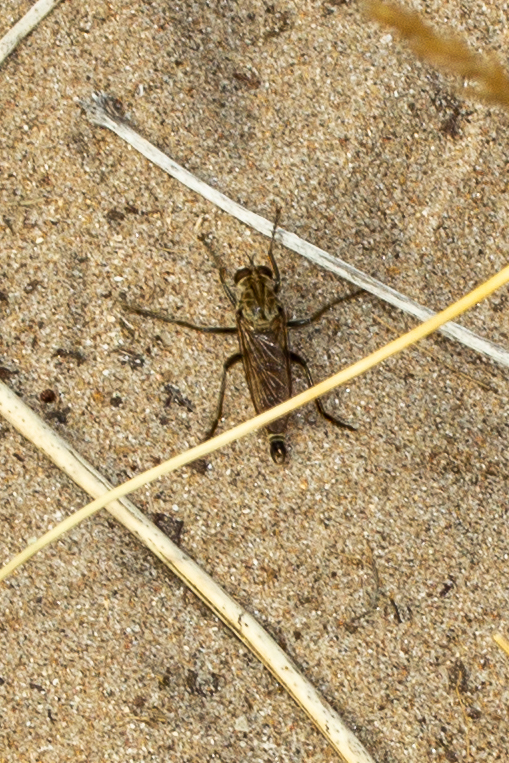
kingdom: Animalia
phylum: Arthropoda
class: Insecta
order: Diptera
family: Asilidae
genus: Philonicus
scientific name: Philonicus albiceps
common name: Dune robberfly
